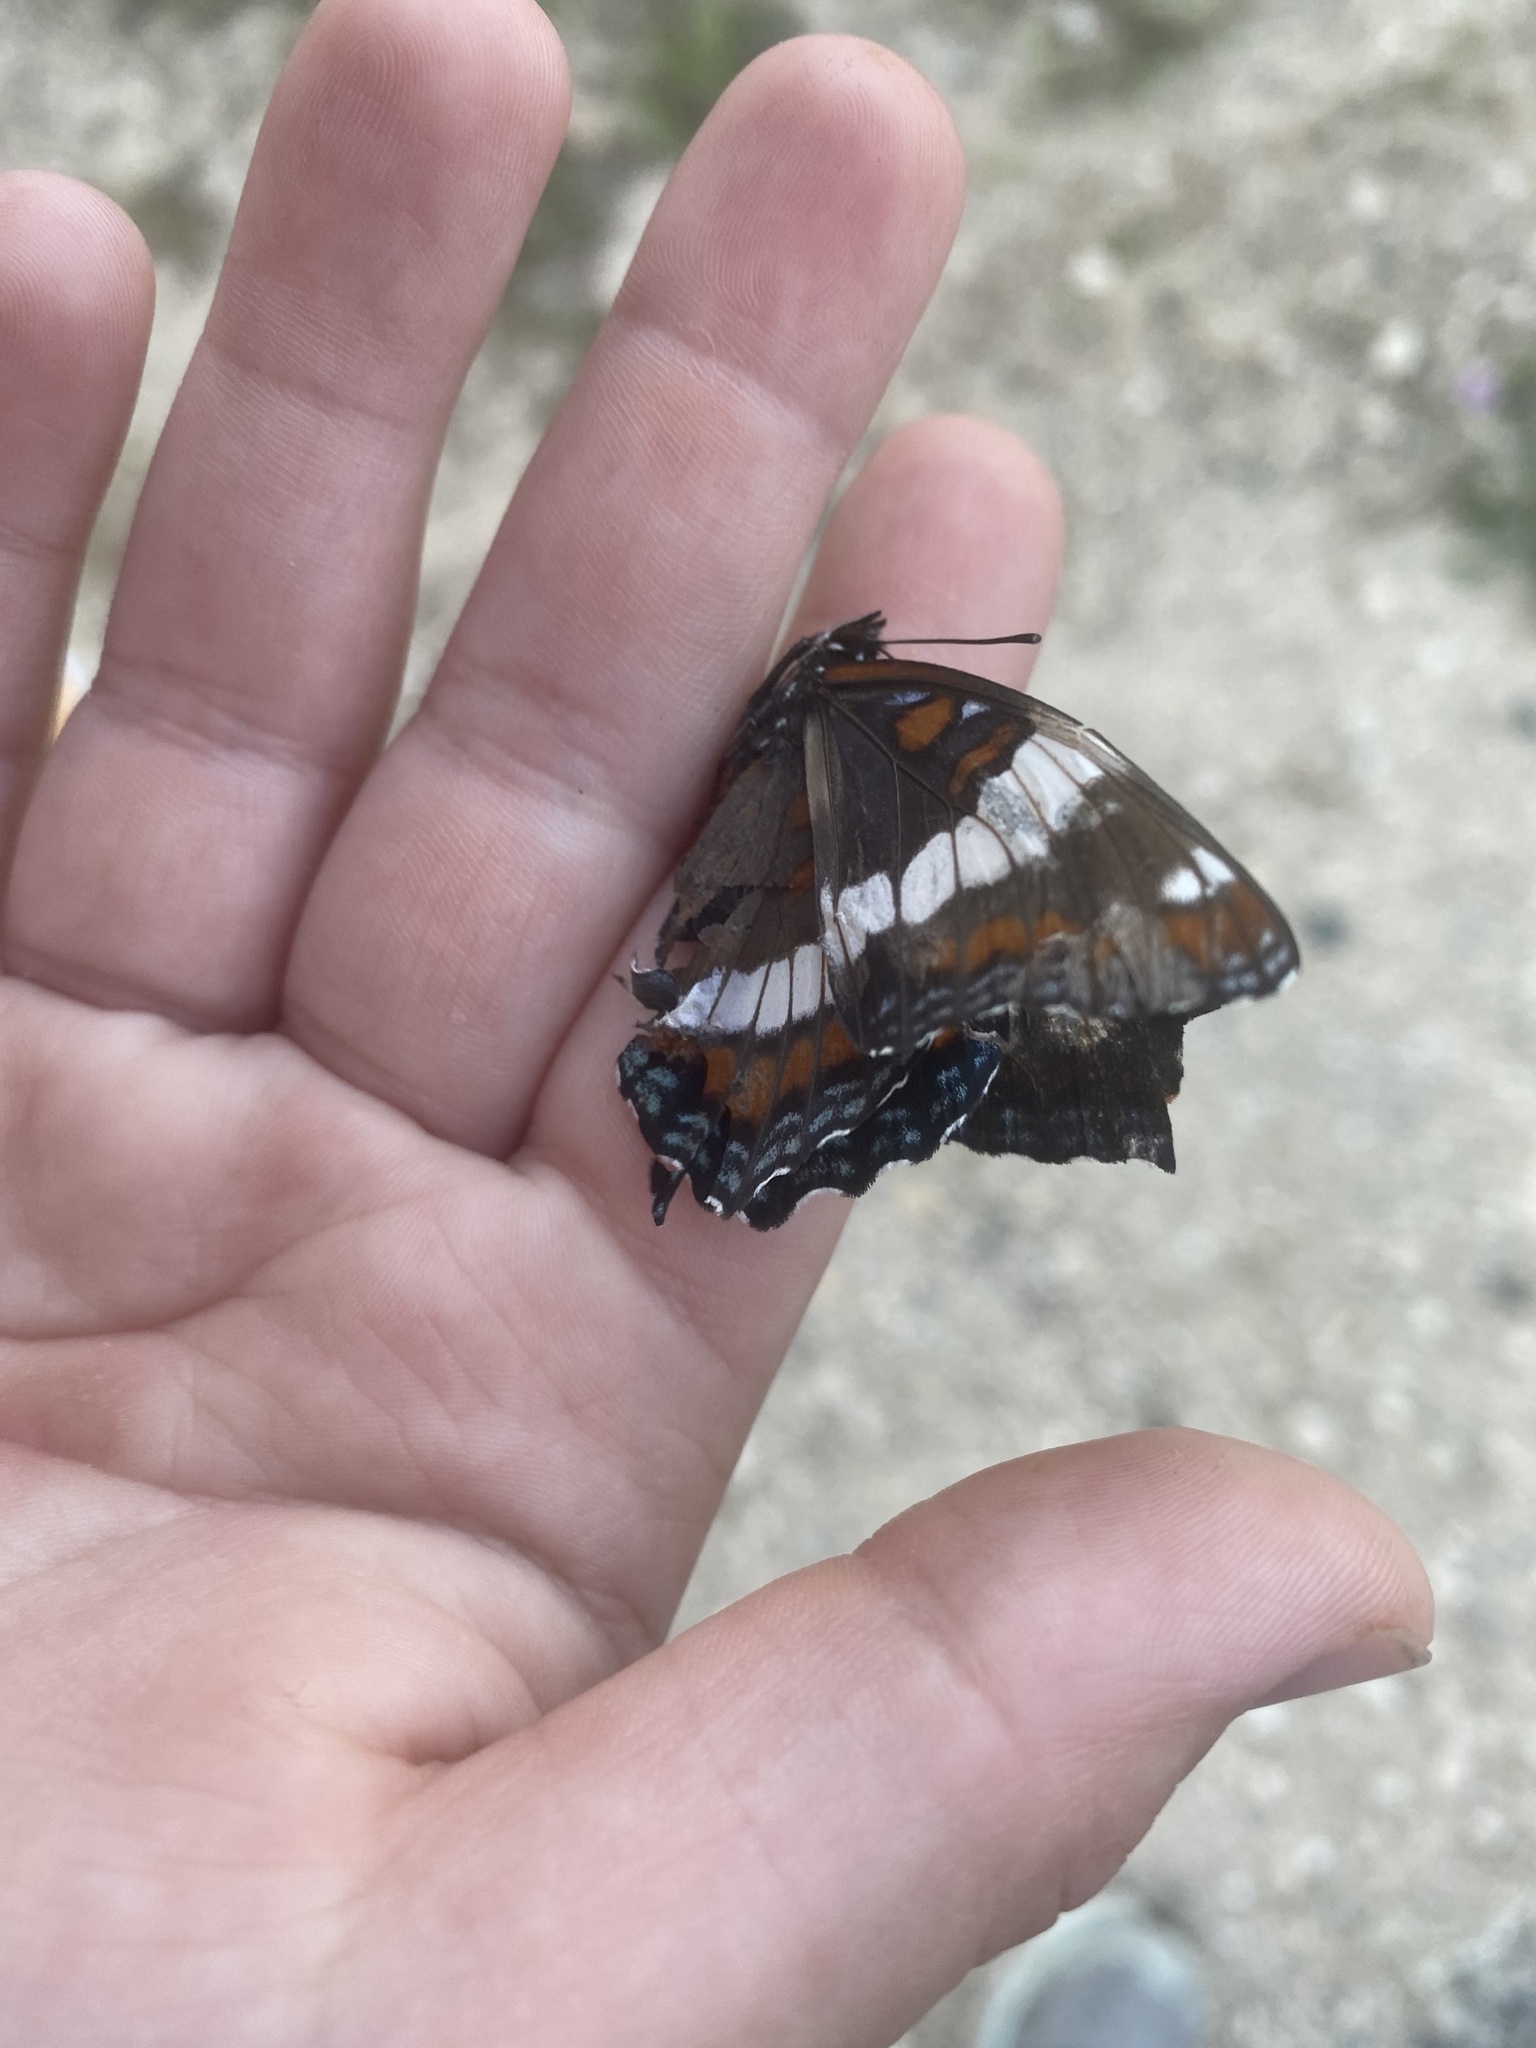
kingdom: Animalia
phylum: Arthropoda
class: Insecta
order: Lepidoptera
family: Nymphalidae
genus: Limenitis
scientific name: Limenitis arthemis
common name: Red-spotted admiral
